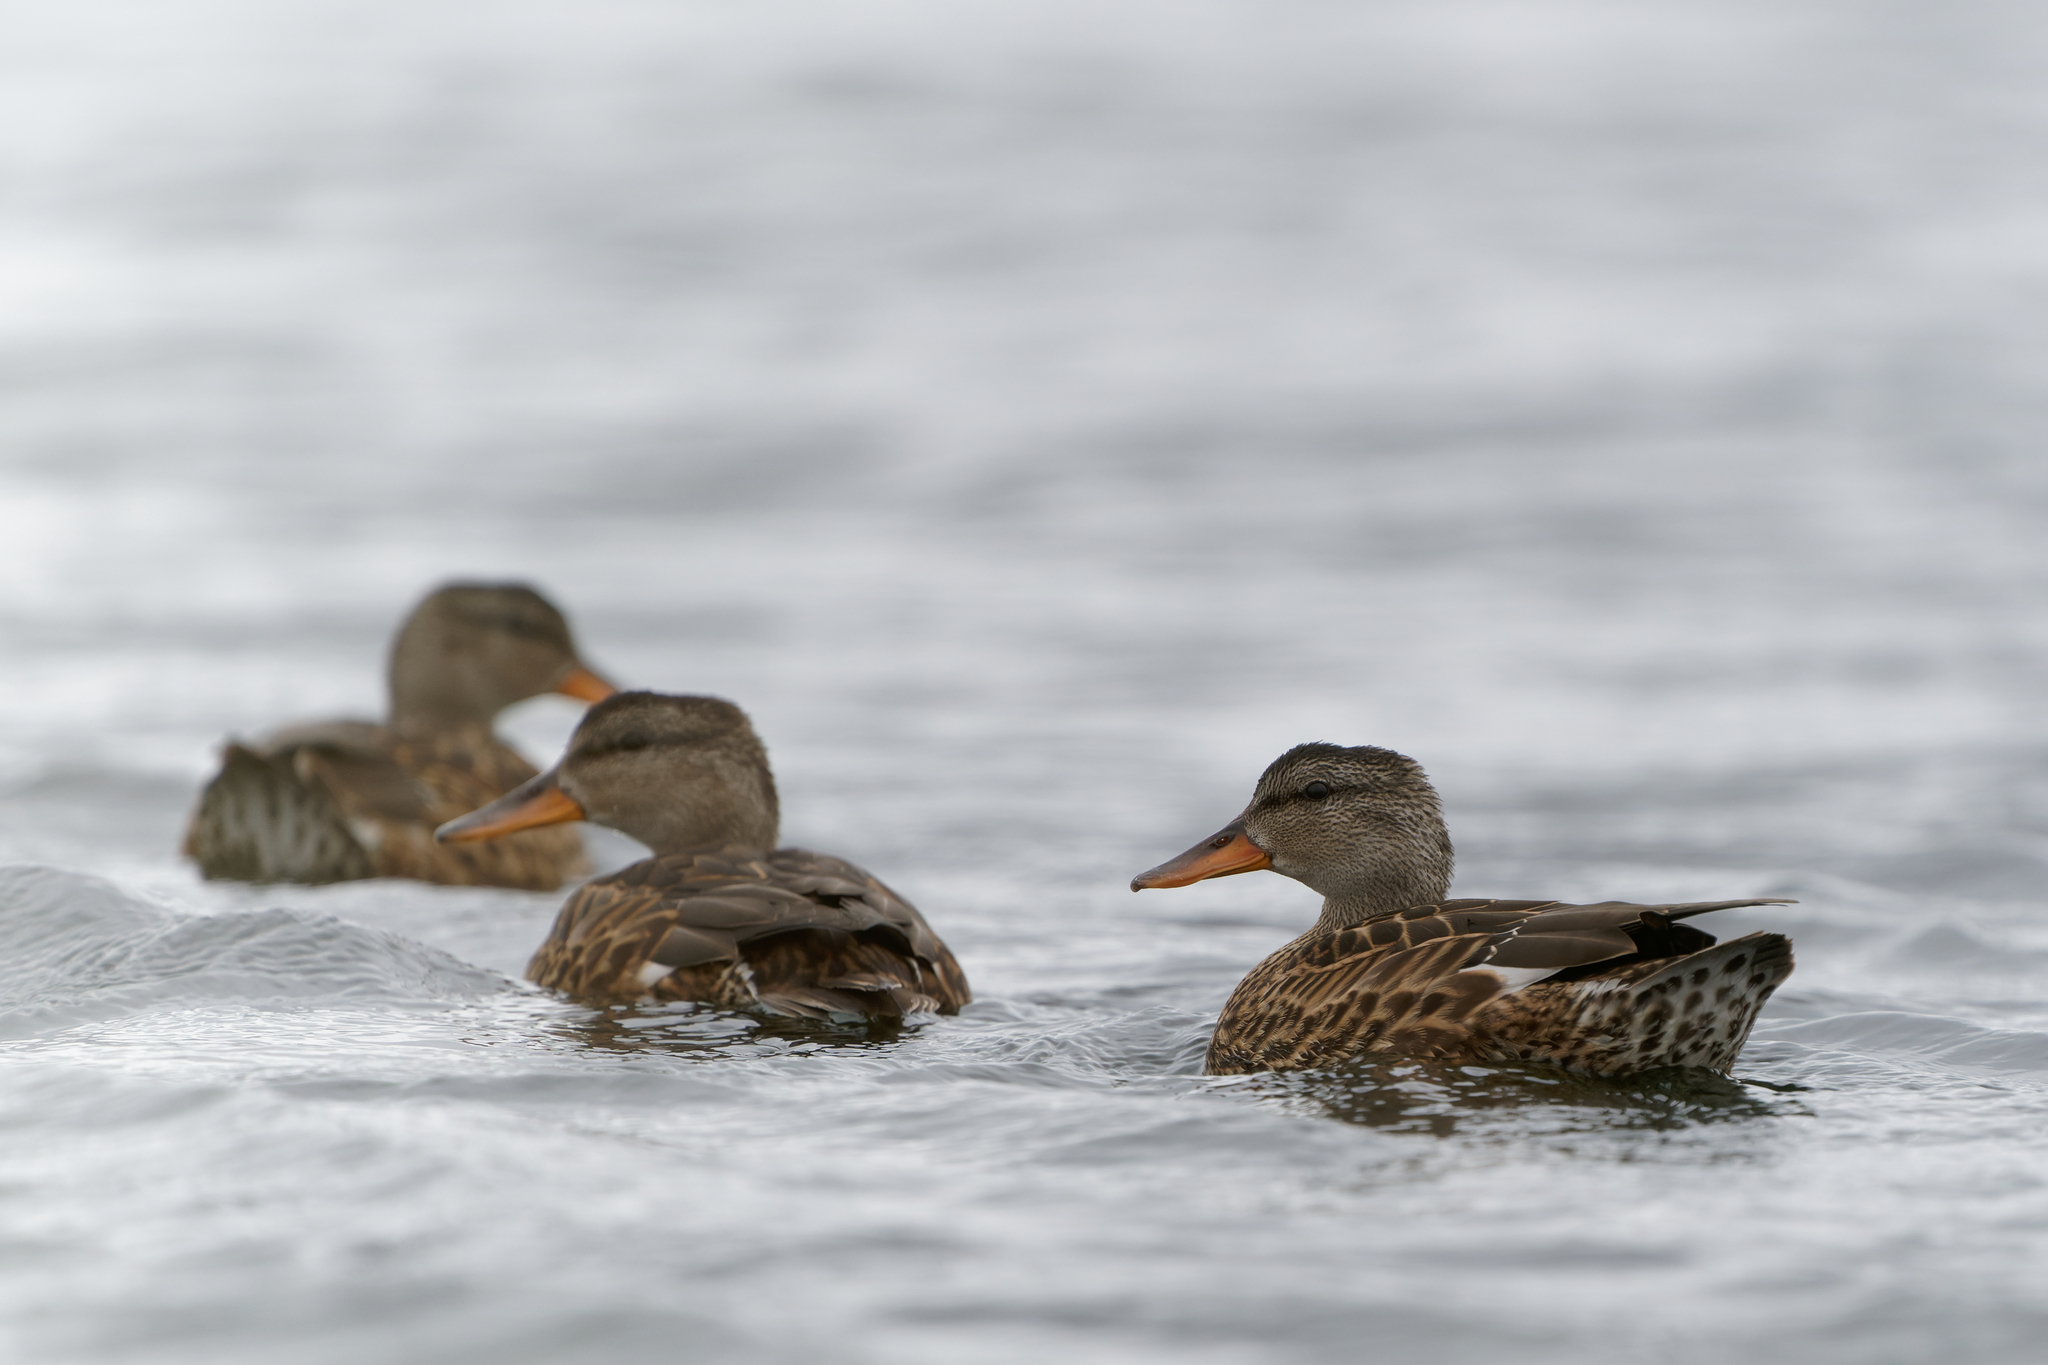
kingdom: Animalia
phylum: Chordata
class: Aves
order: Anseriformes
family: Anatidae
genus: Mareca
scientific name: Mareca strepera
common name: Gadwall
